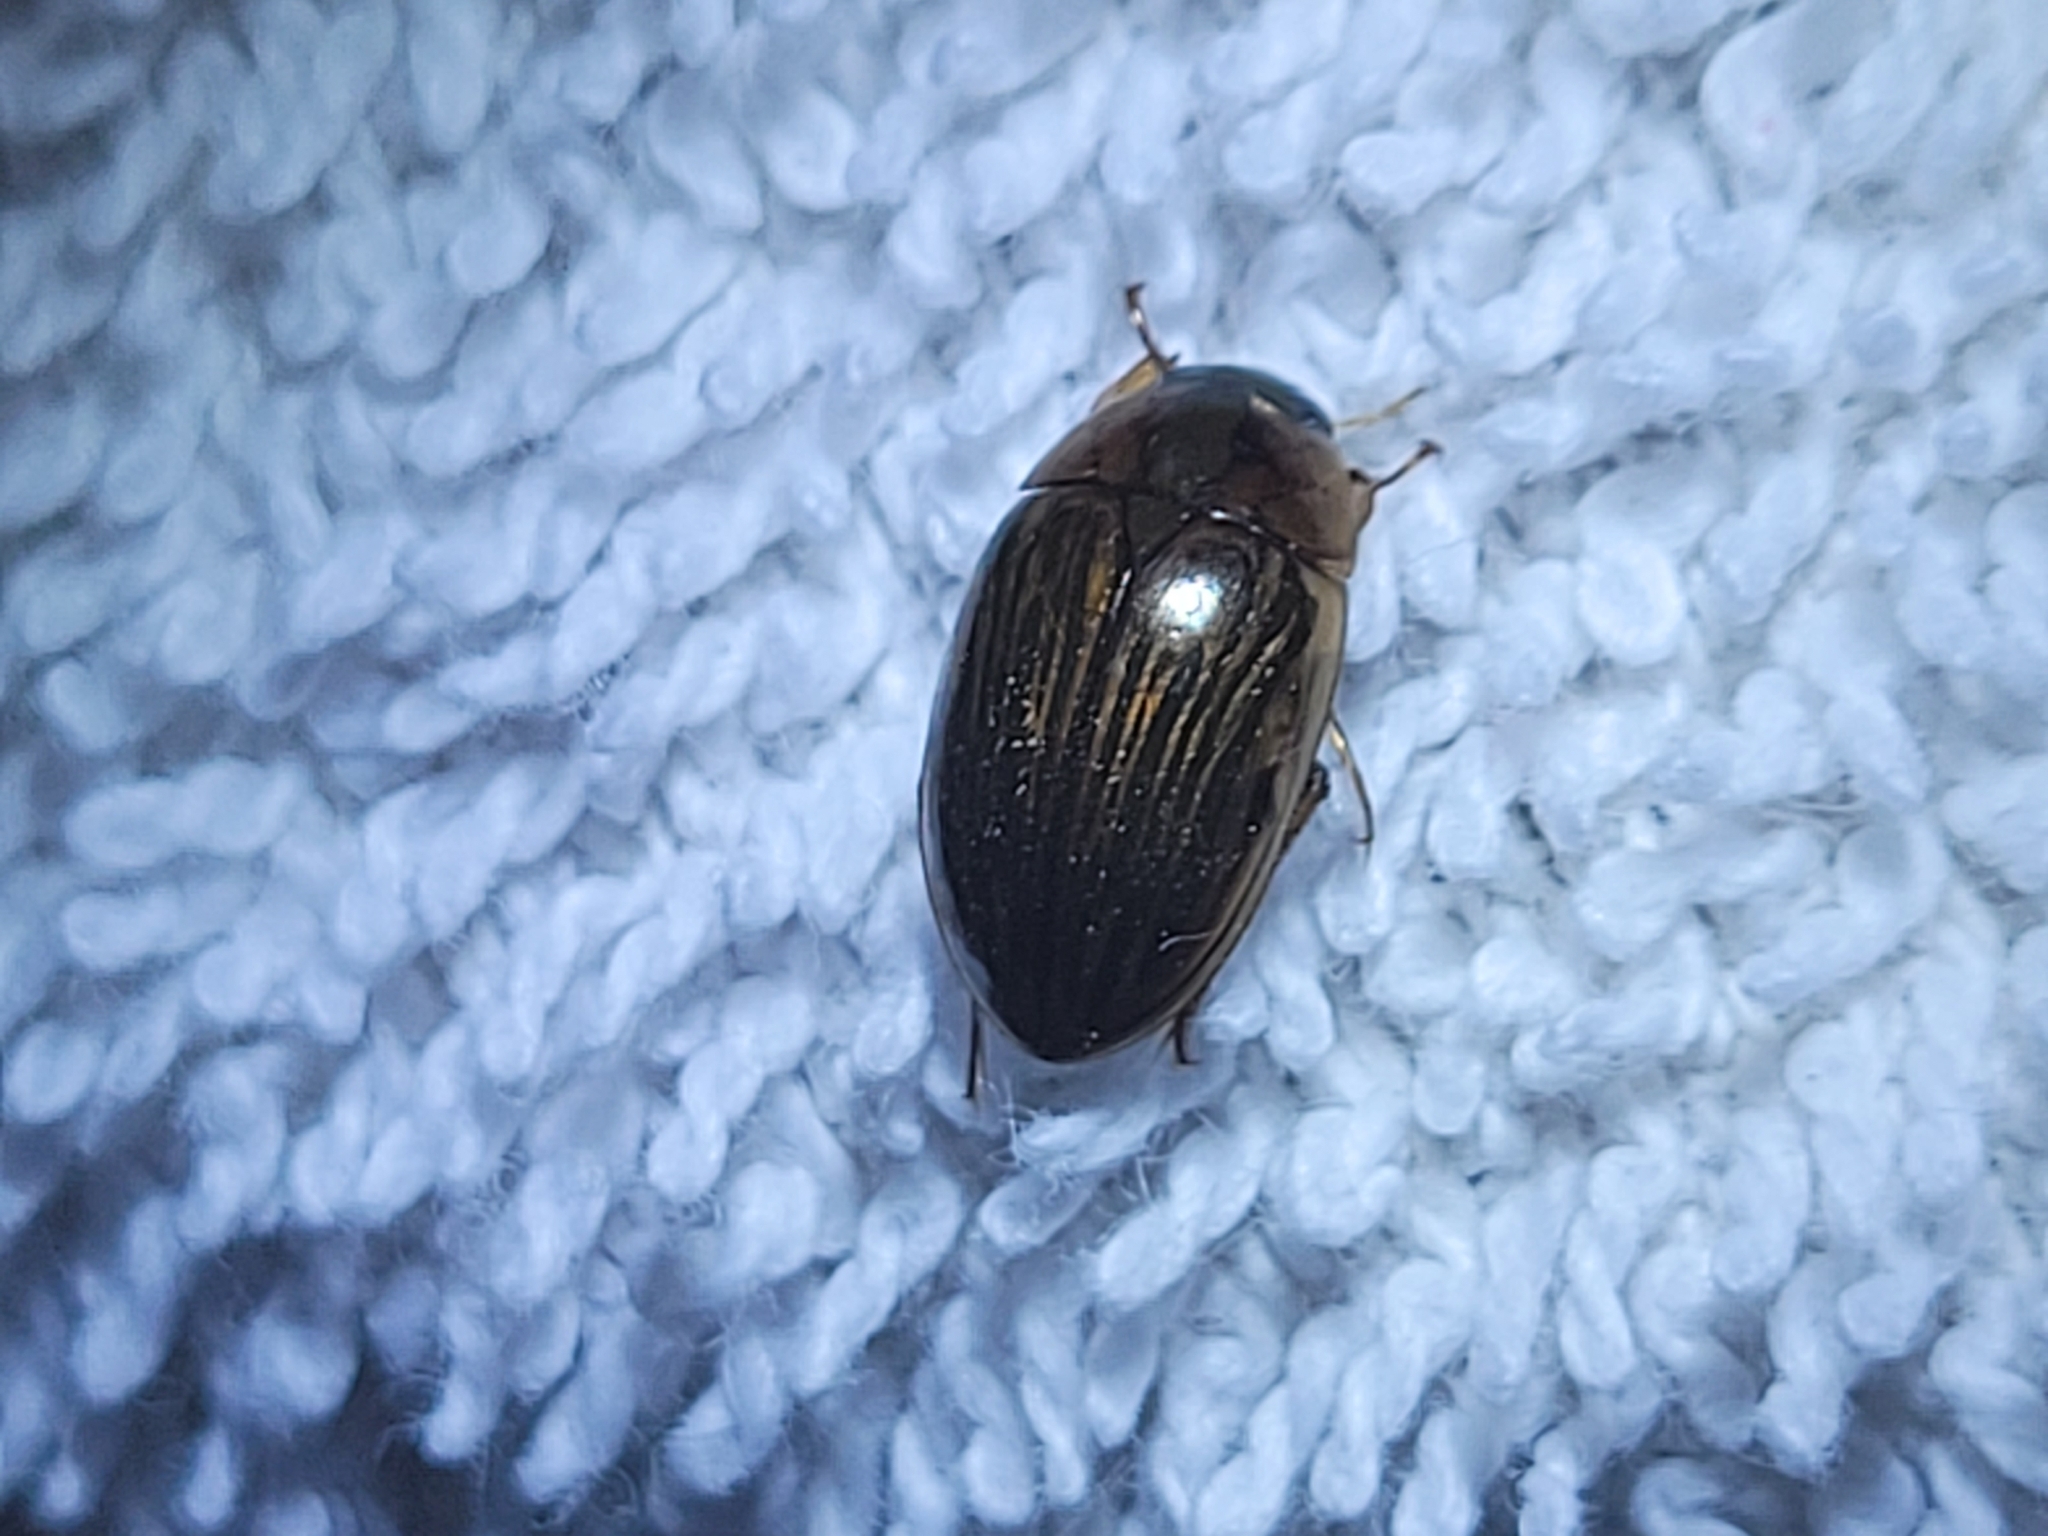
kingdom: Animalia
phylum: Arthropoda
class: Insecta
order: Coleoptera
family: Hydrophilidae
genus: Tropisternus
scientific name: Tropisternus collaris
